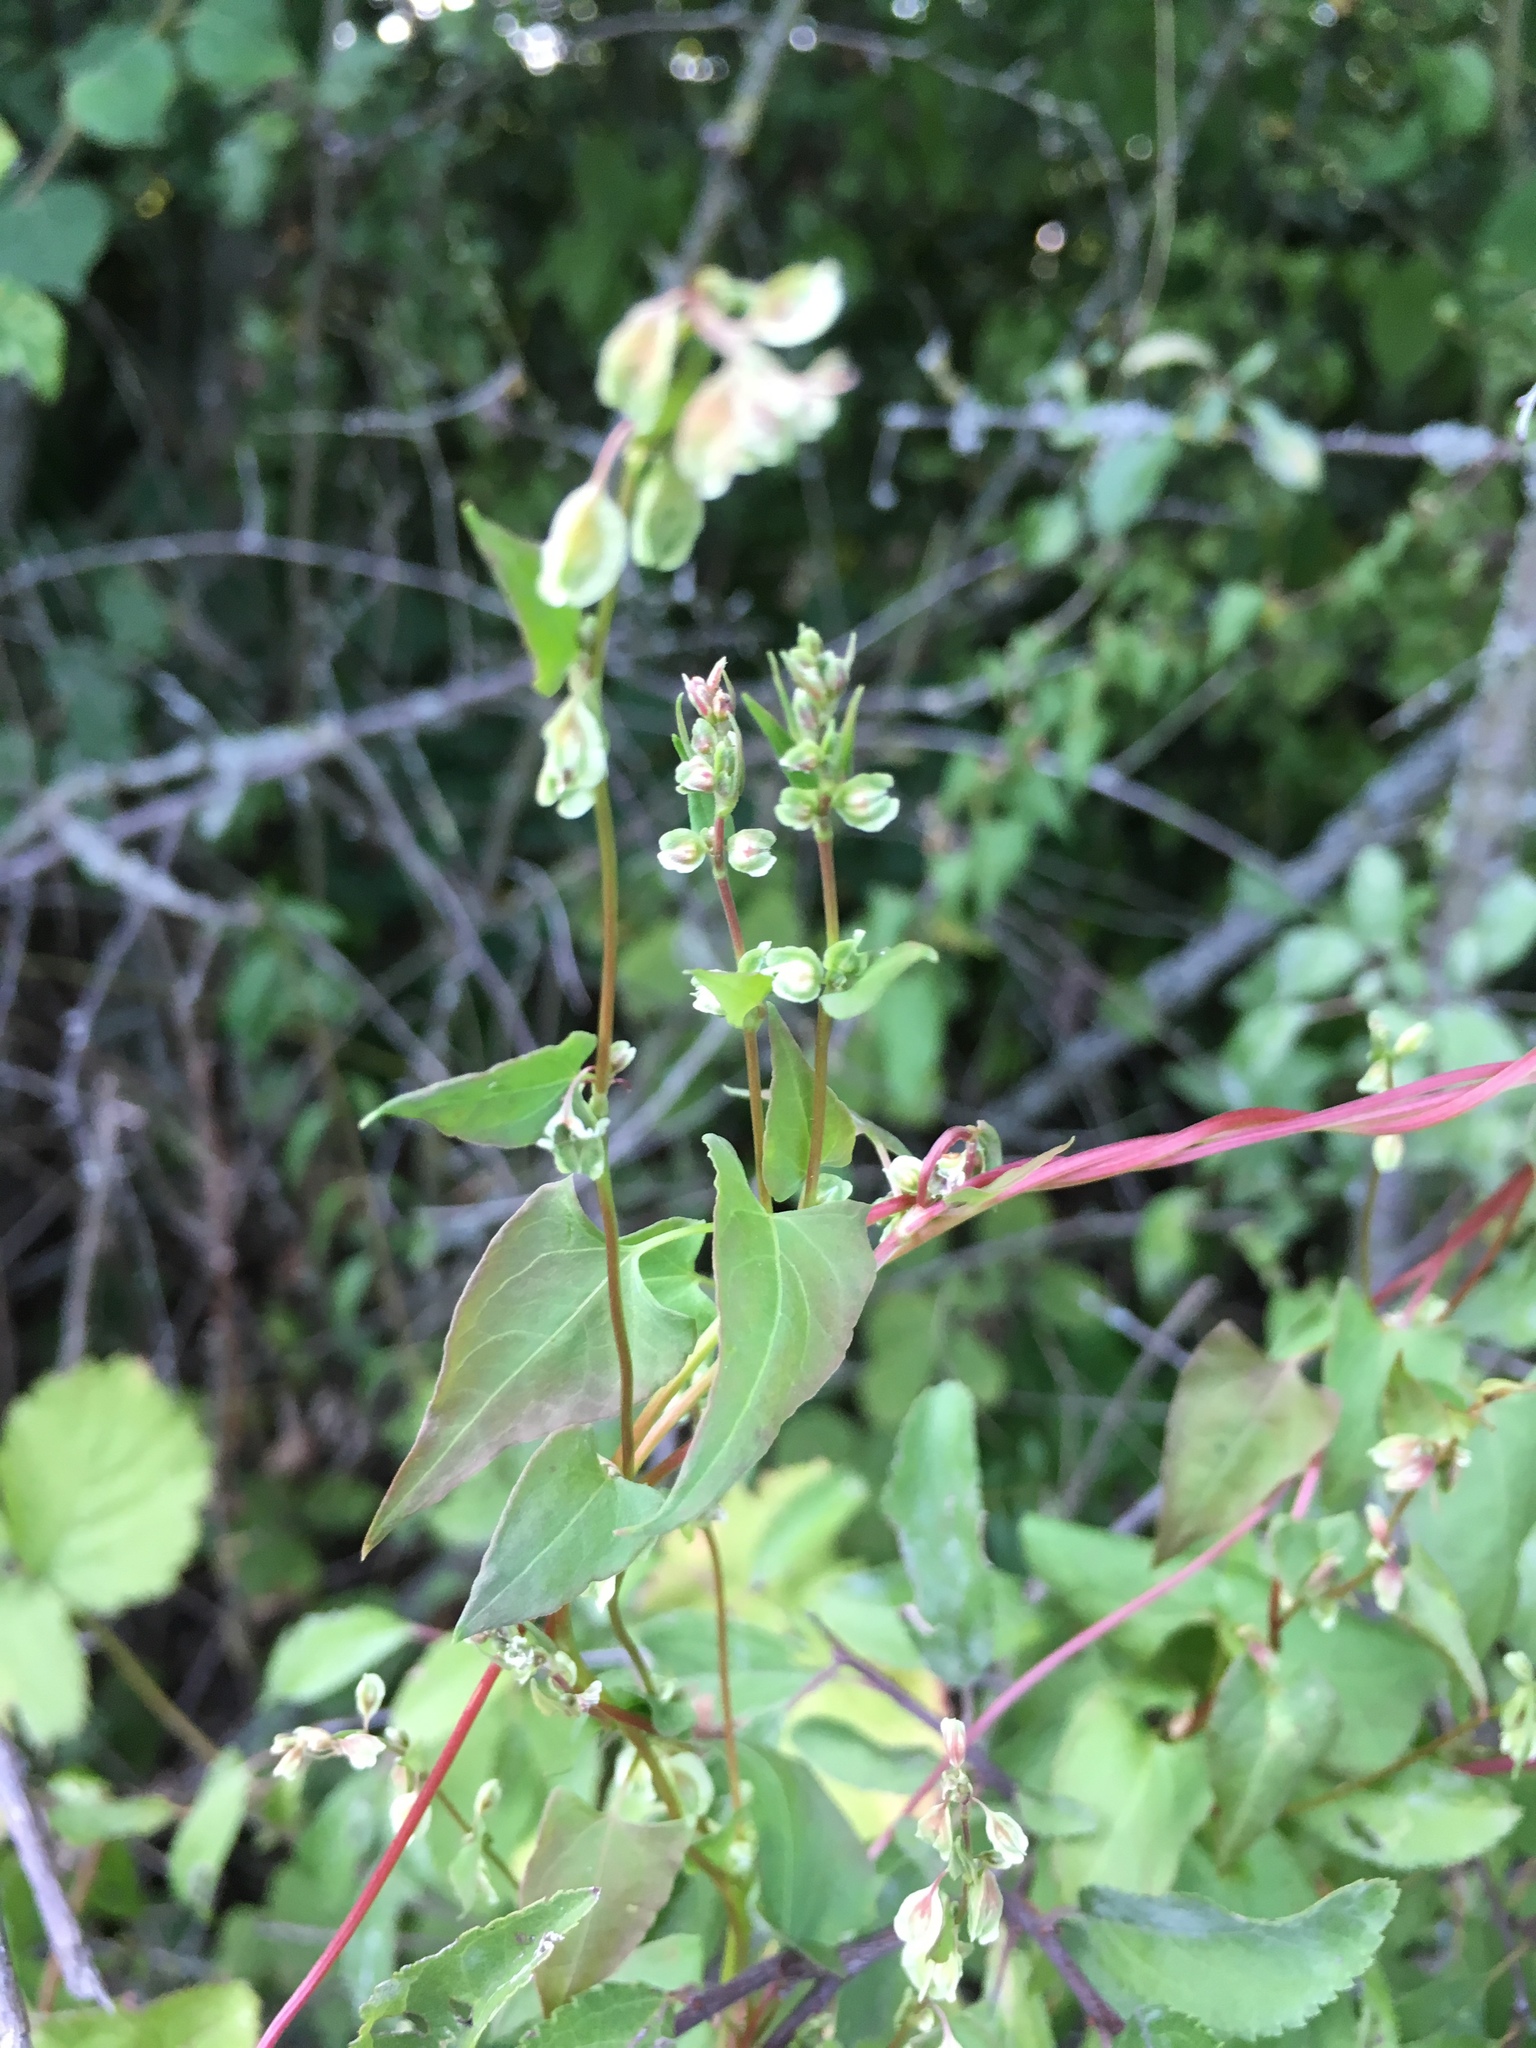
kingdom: Plantae
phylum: Tracheophyta
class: Magnoliopsida
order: Caryophyllales
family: Polygonaceae
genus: Fallopia
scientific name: Fallopia dumetorum
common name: Copse-bindweed
